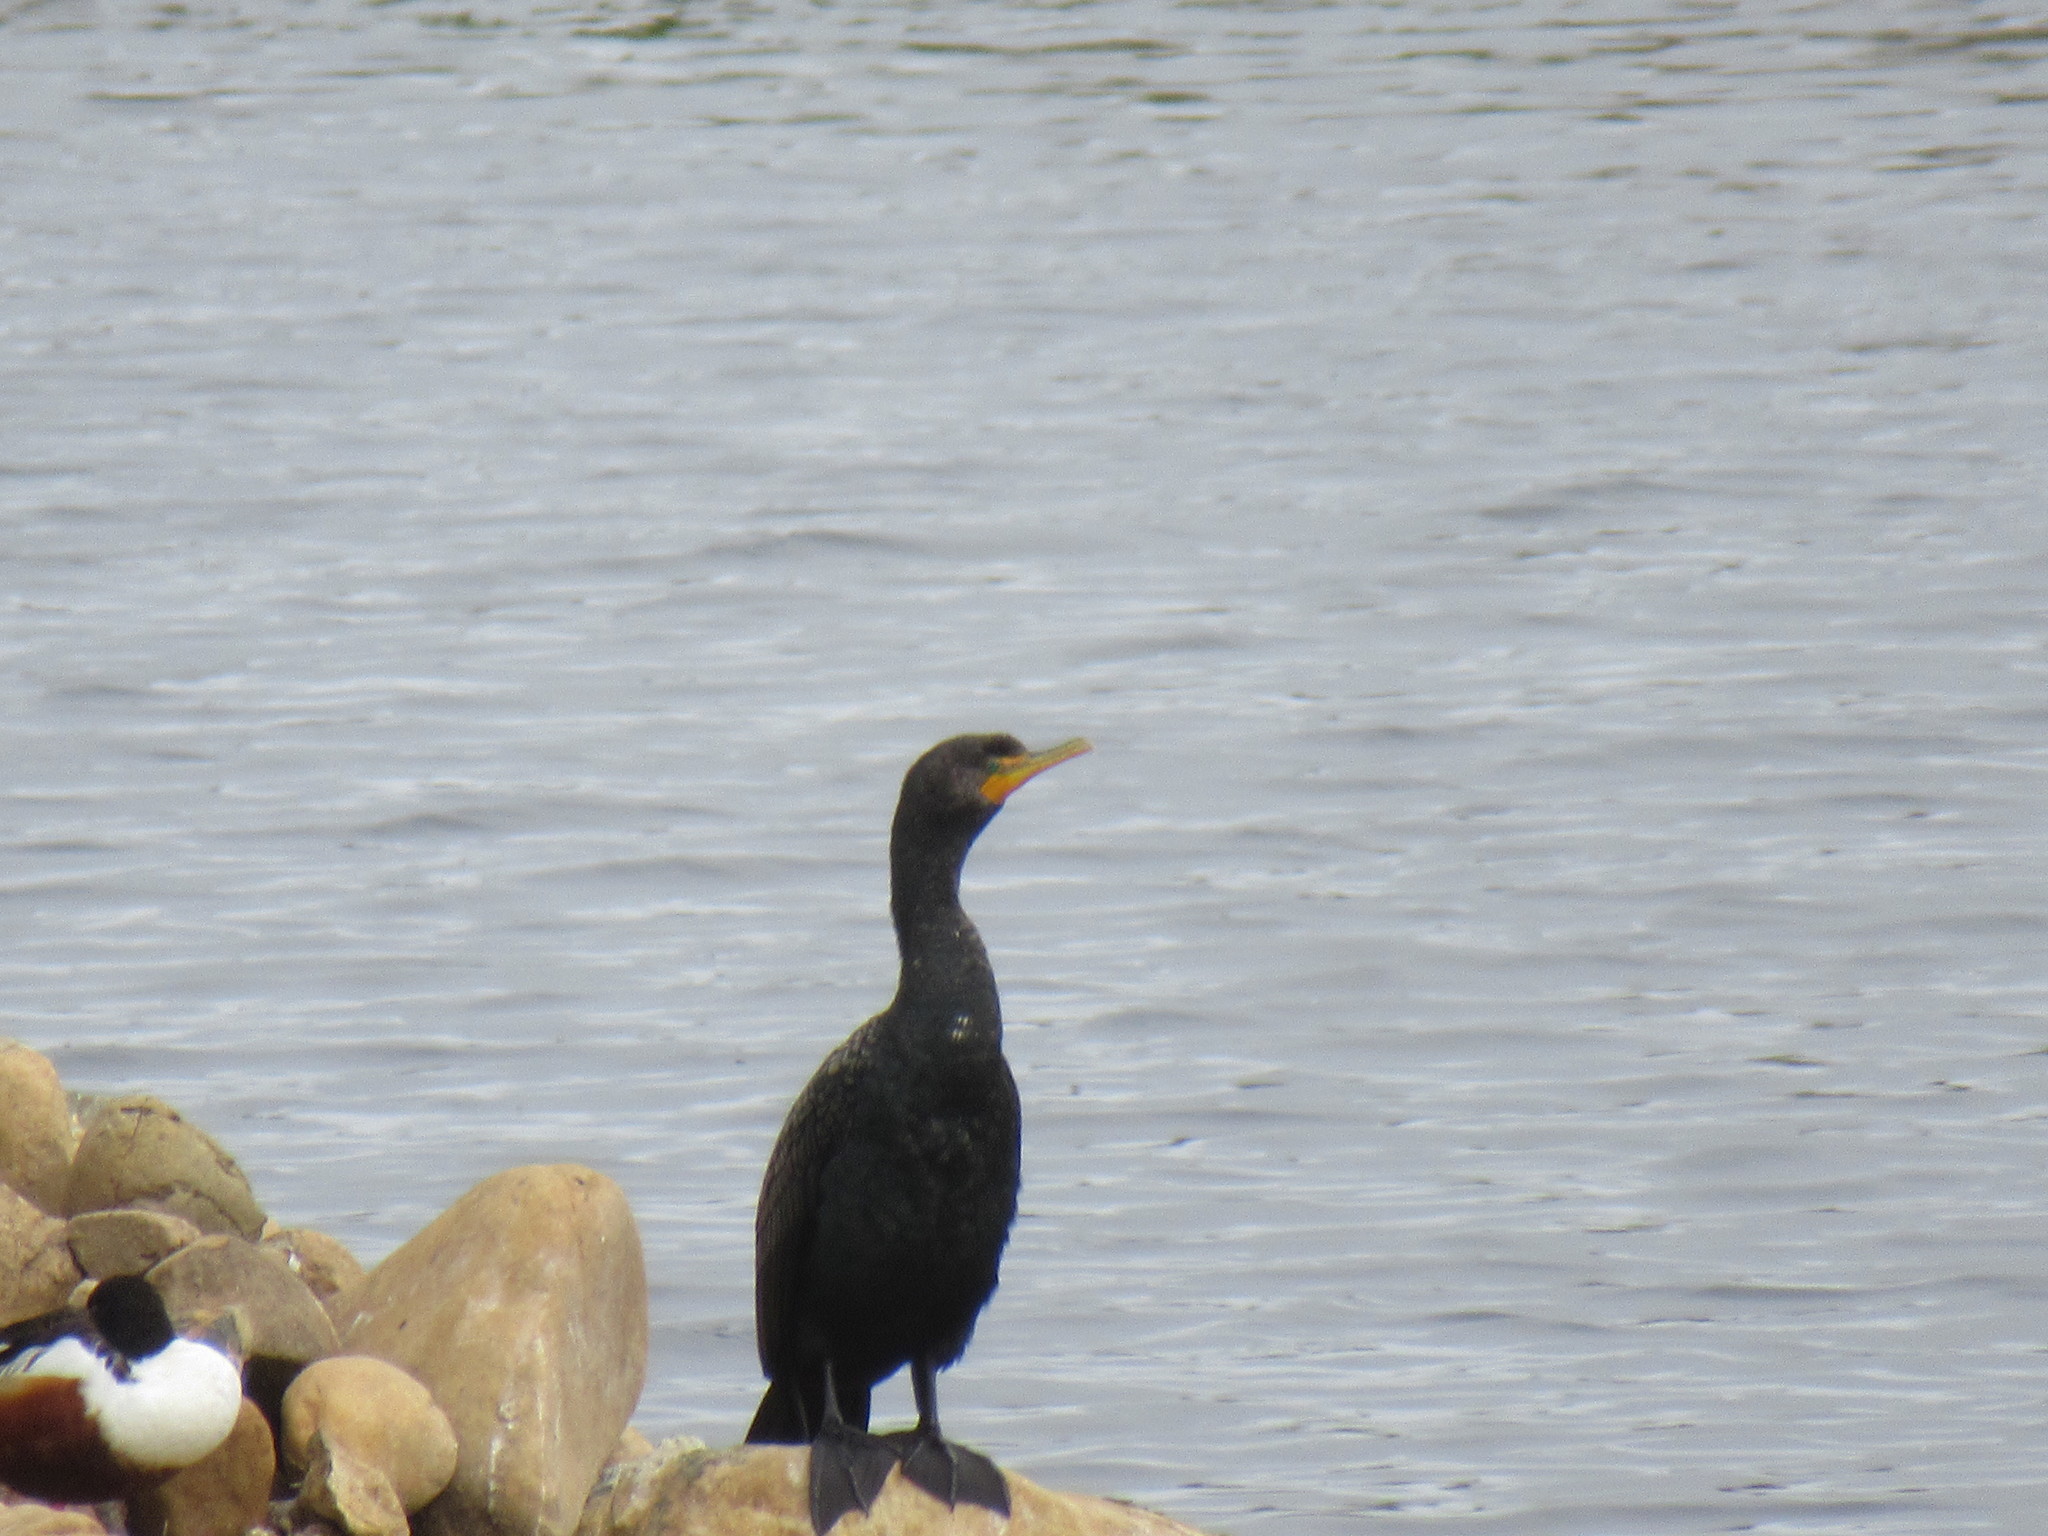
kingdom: Animalia
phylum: Chordata
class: Aves
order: Suliformes
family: Phalacrocoracidae
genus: Phalacrocorax
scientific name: Phalacrocorax auritus
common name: Double-crested cormorant
